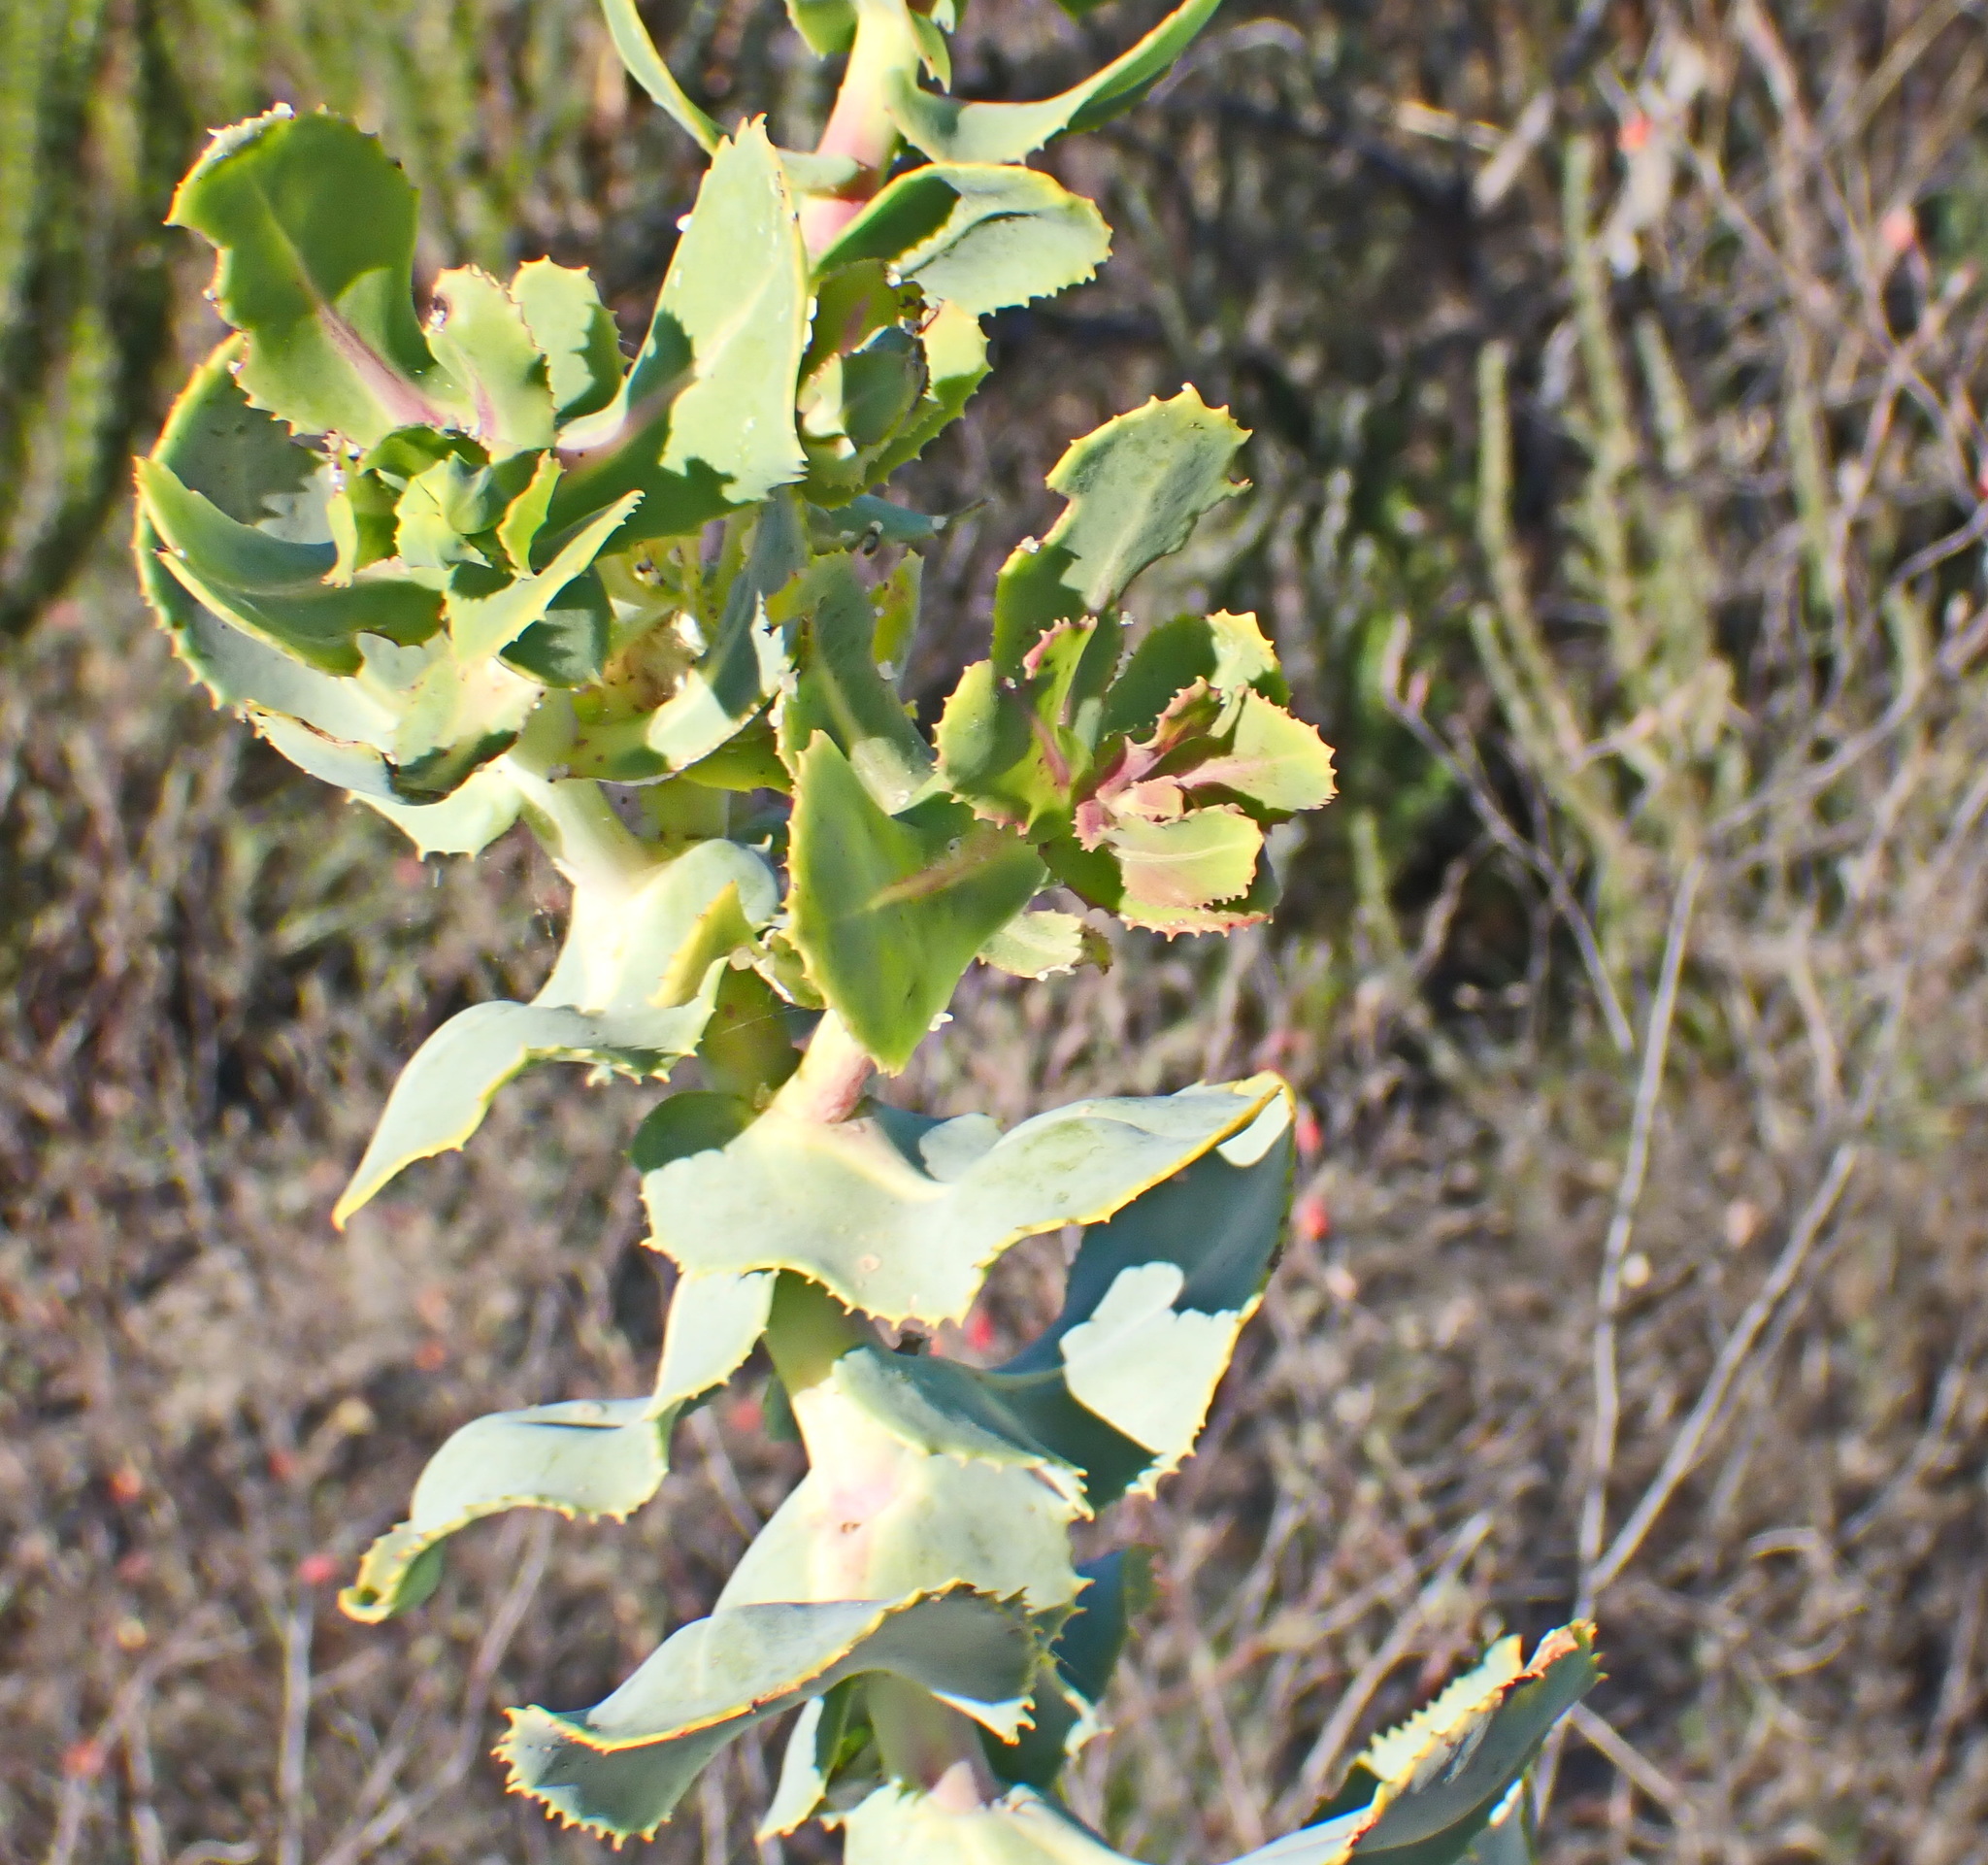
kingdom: Plantae
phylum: Tracheophyta
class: Magnoliopsida
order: Asterales
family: Asteraceae
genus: Othonna
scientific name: Othonna parviflora
